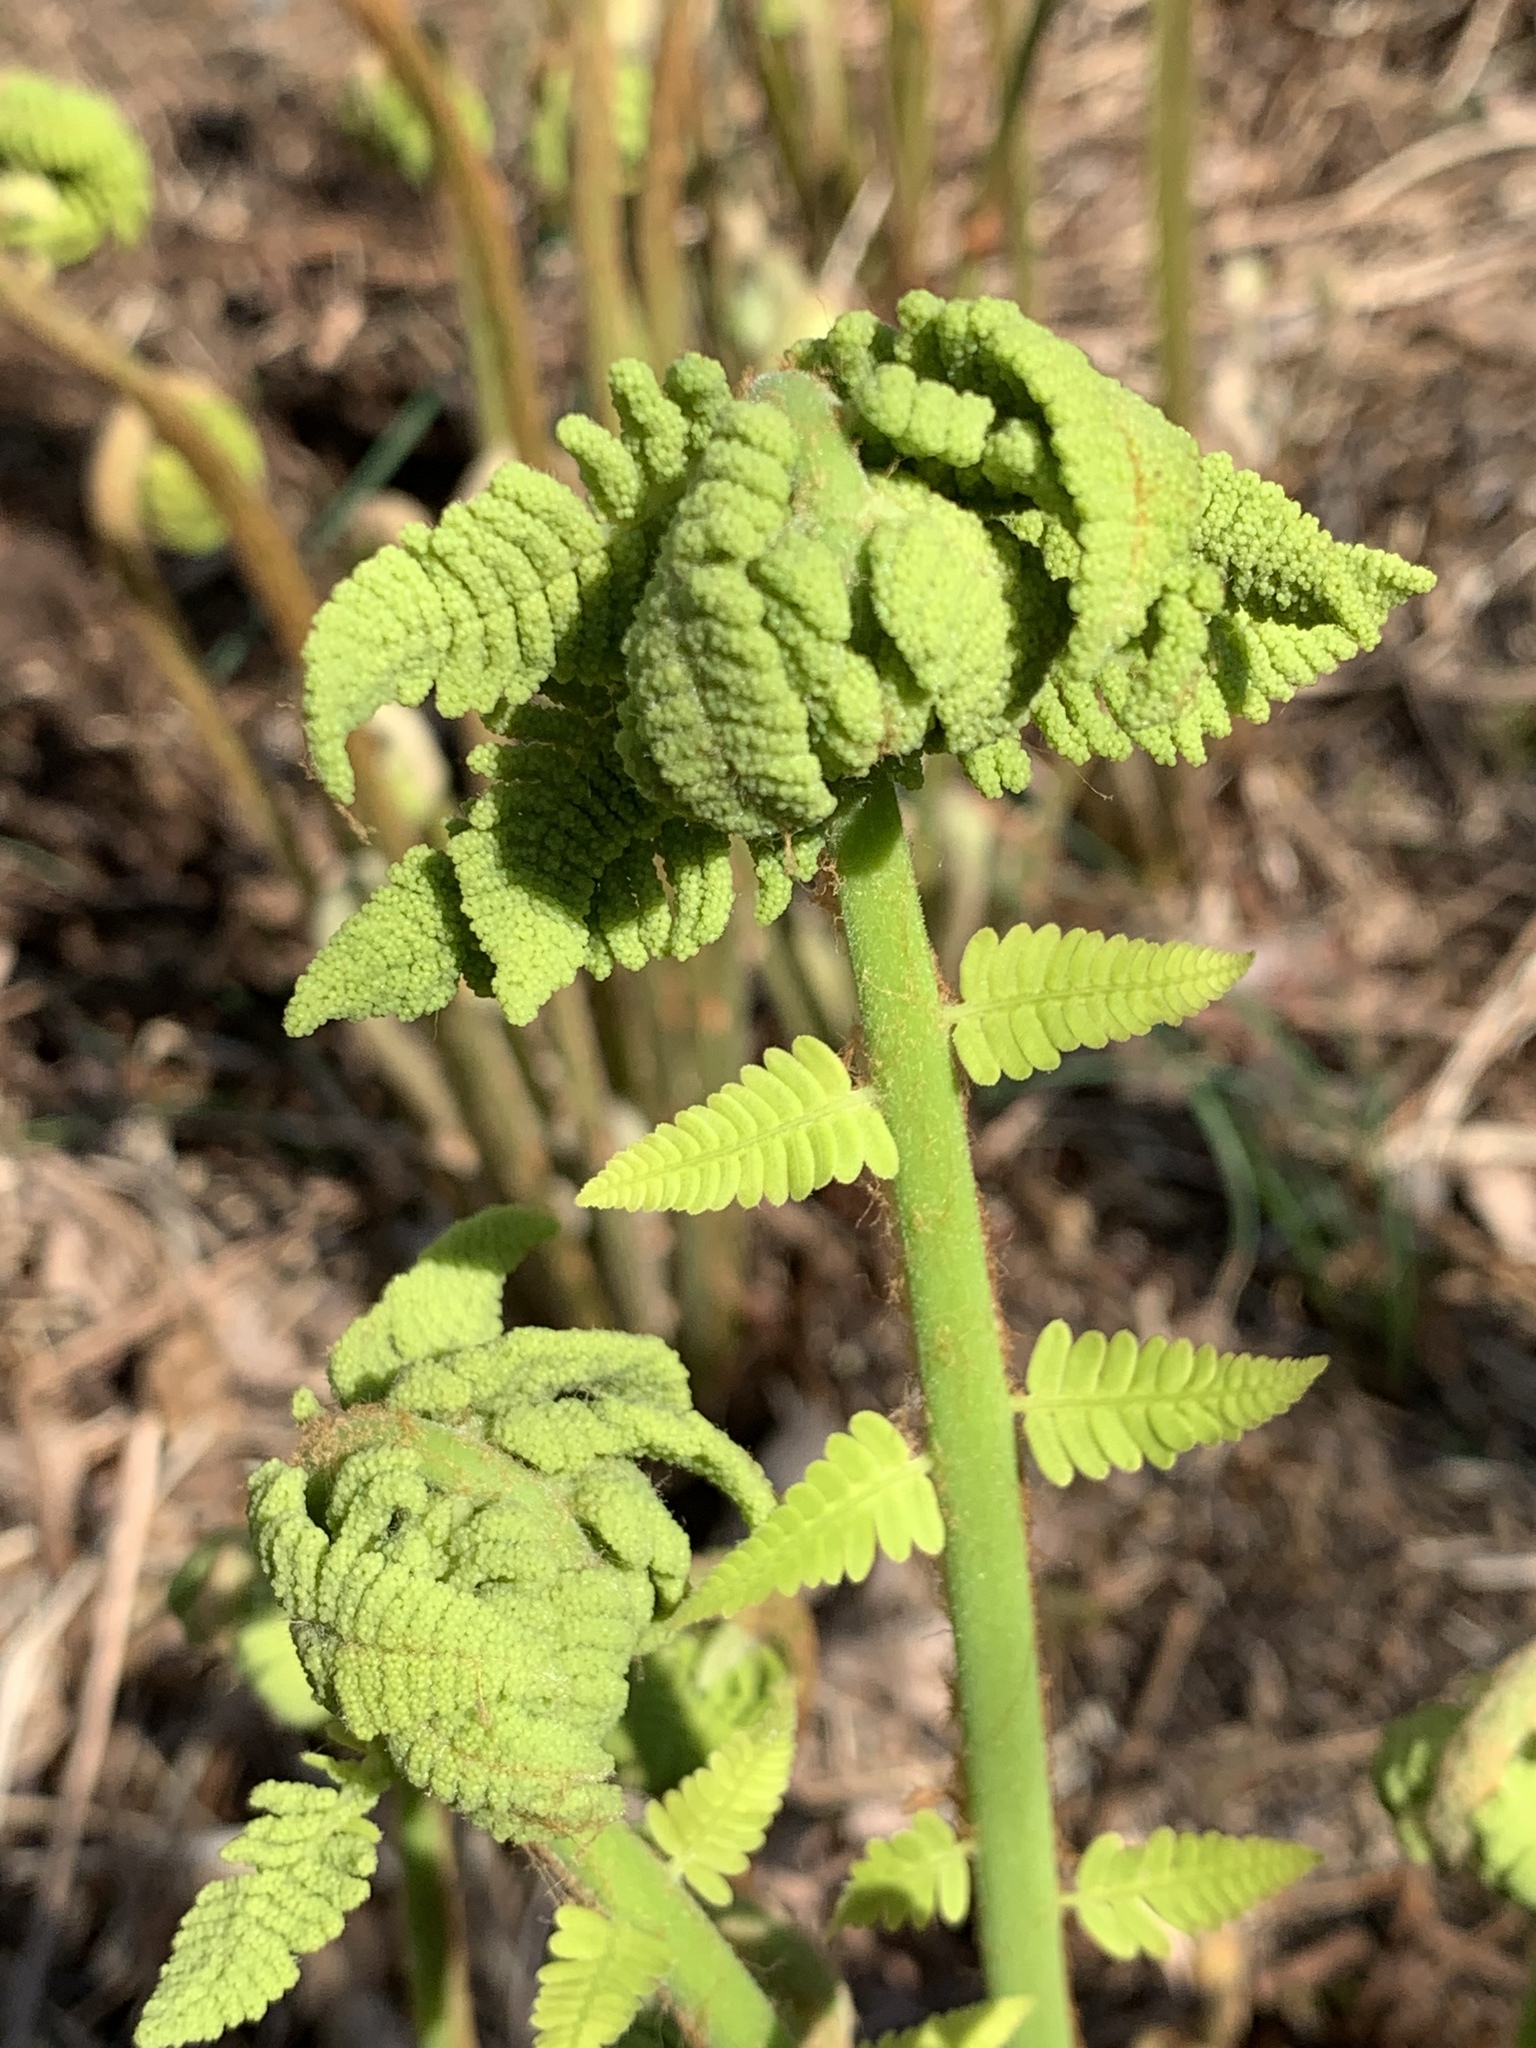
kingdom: Plantae
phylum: Tracheophyta
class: Polypodiopsida
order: Osmundales
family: Osmundaceae
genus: Claytosmunda
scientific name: Claytosmunda claytoniana
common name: Clayton's fern
